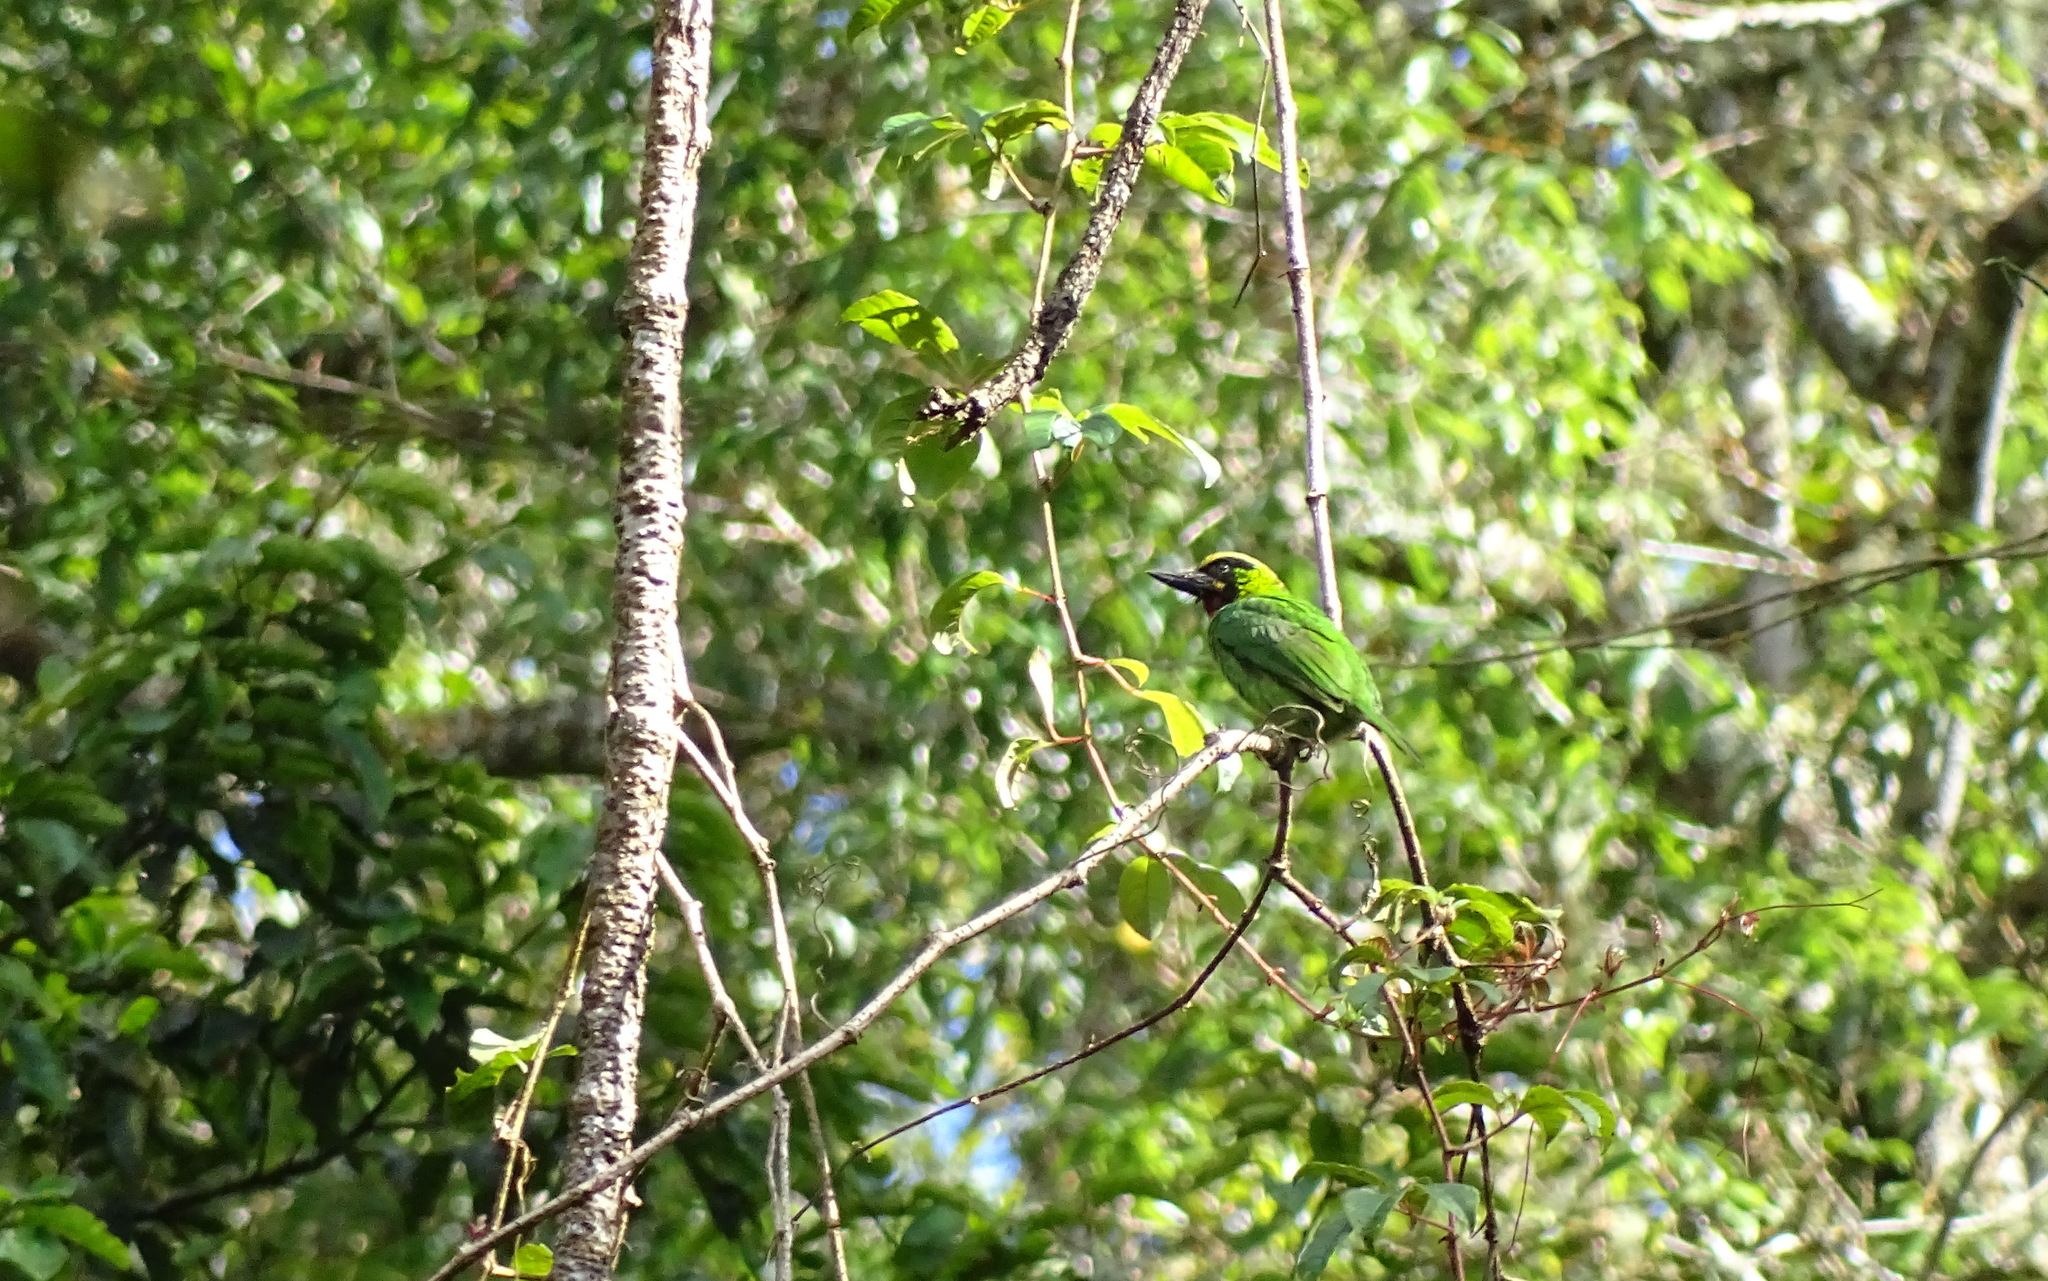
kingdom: Animalia
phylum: Chordata
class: Aves
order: Piciformes
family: Megalaimidae
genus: Psilopogon
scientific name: Psilopogon javensis
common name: Black-banded barbet
